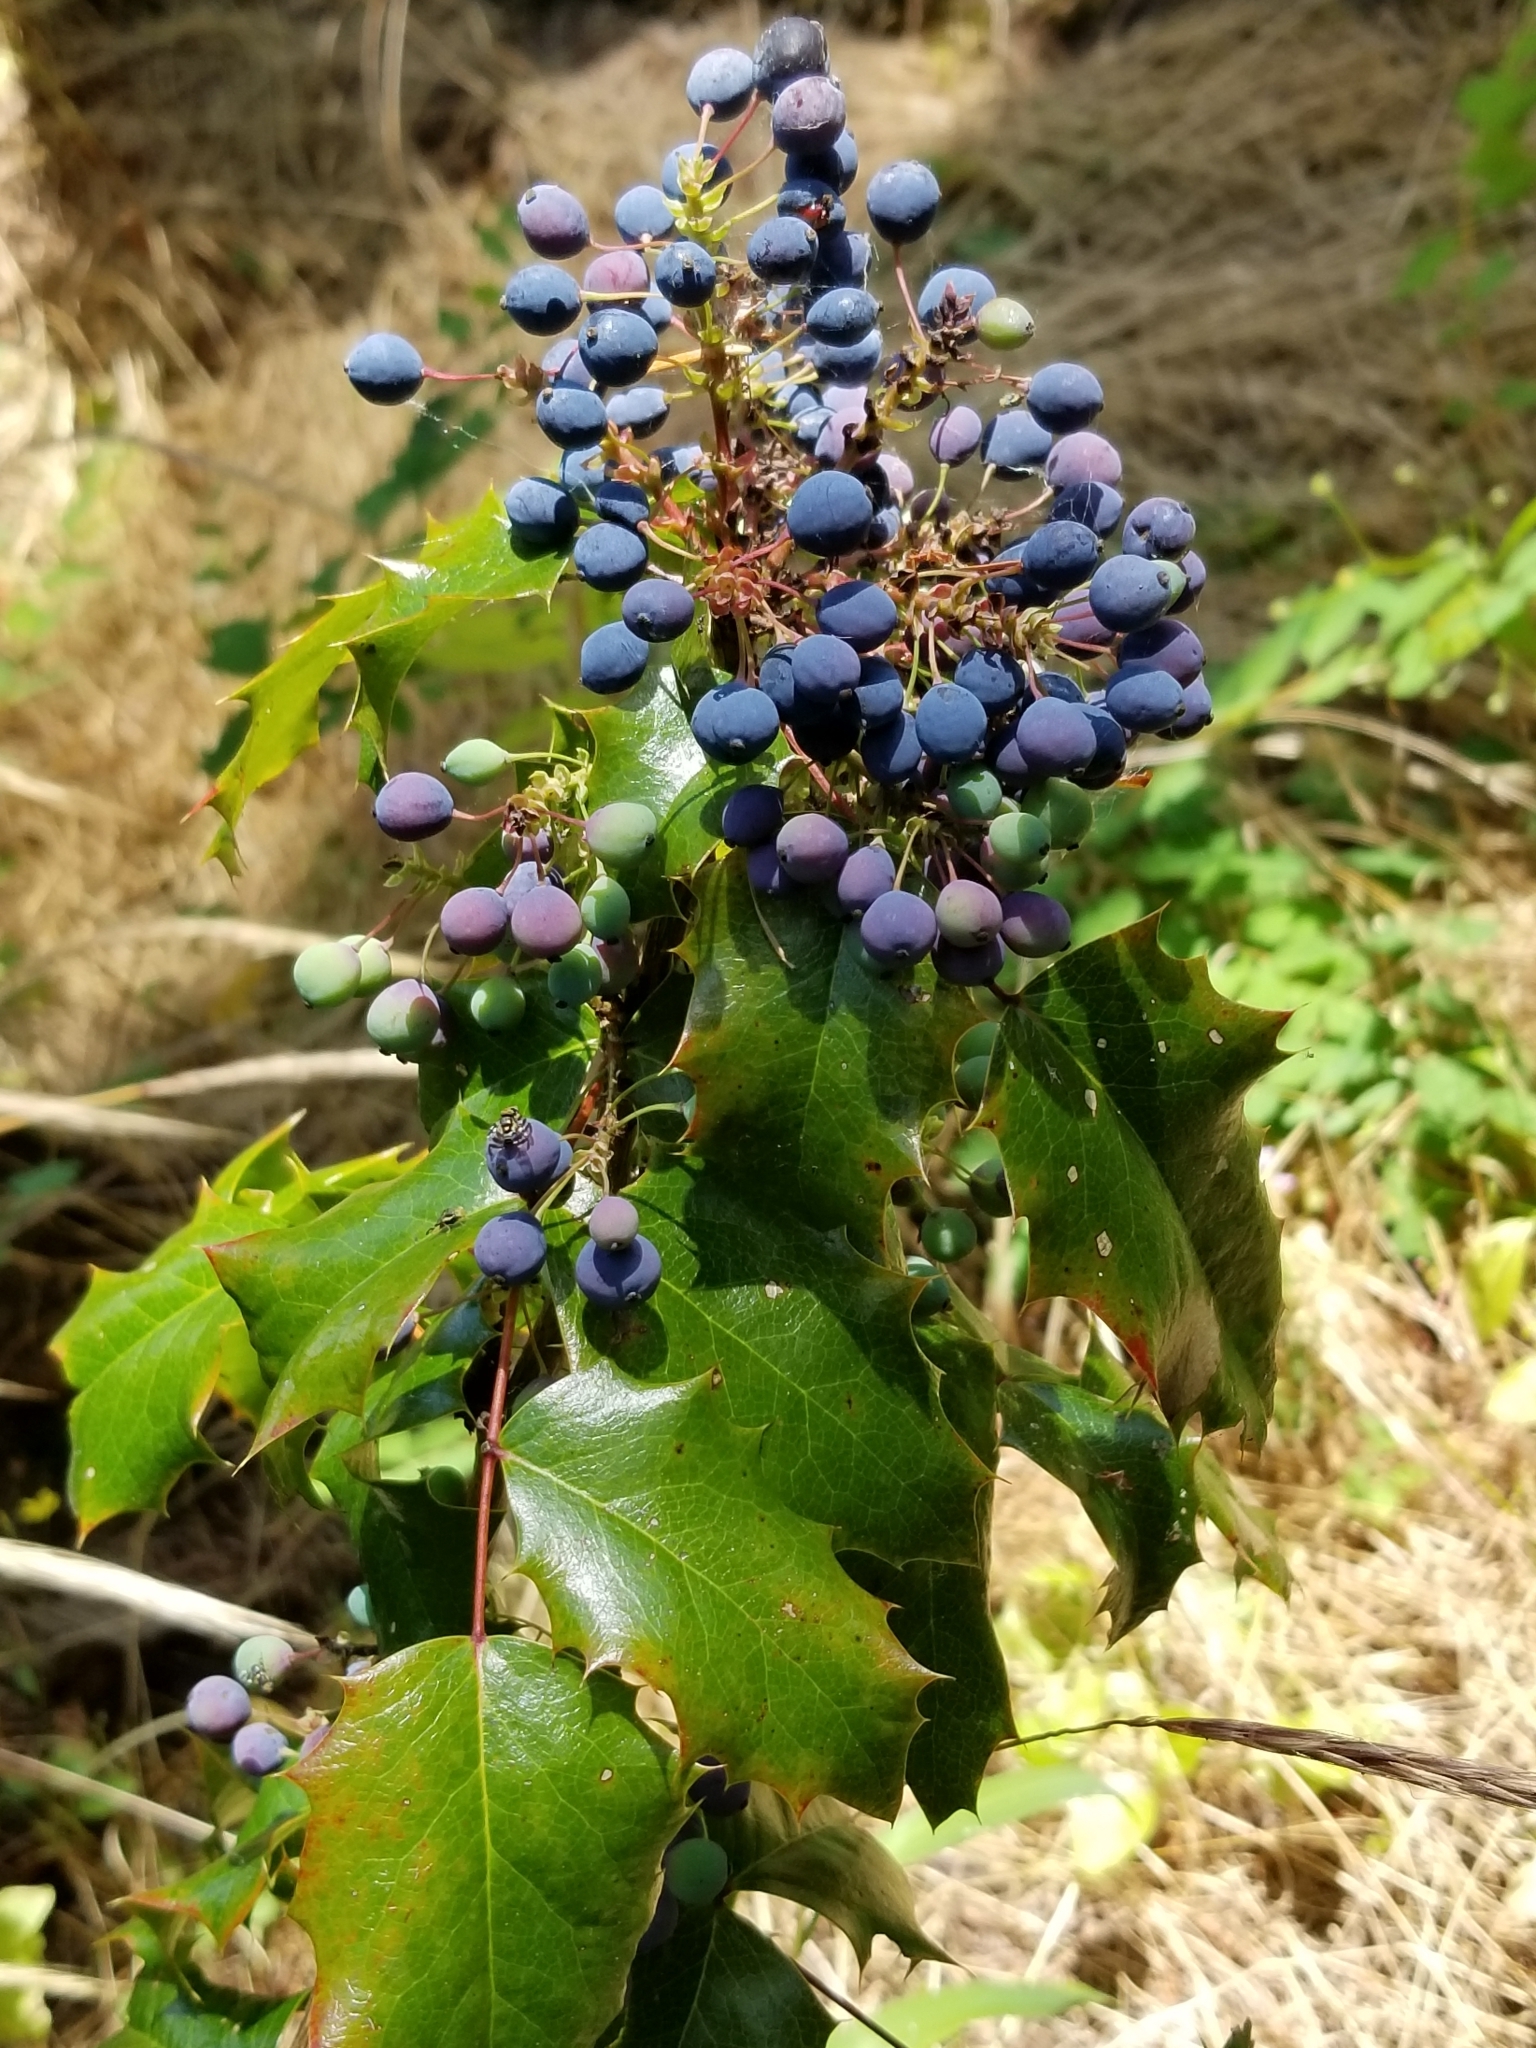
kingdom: Plantae
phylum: Tracheophyta
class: Magnoliopsida
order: Ranunculales
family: Berberidaceae
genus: Mahonia
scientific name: Mahonia aquifolium
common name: Oregon-grape
